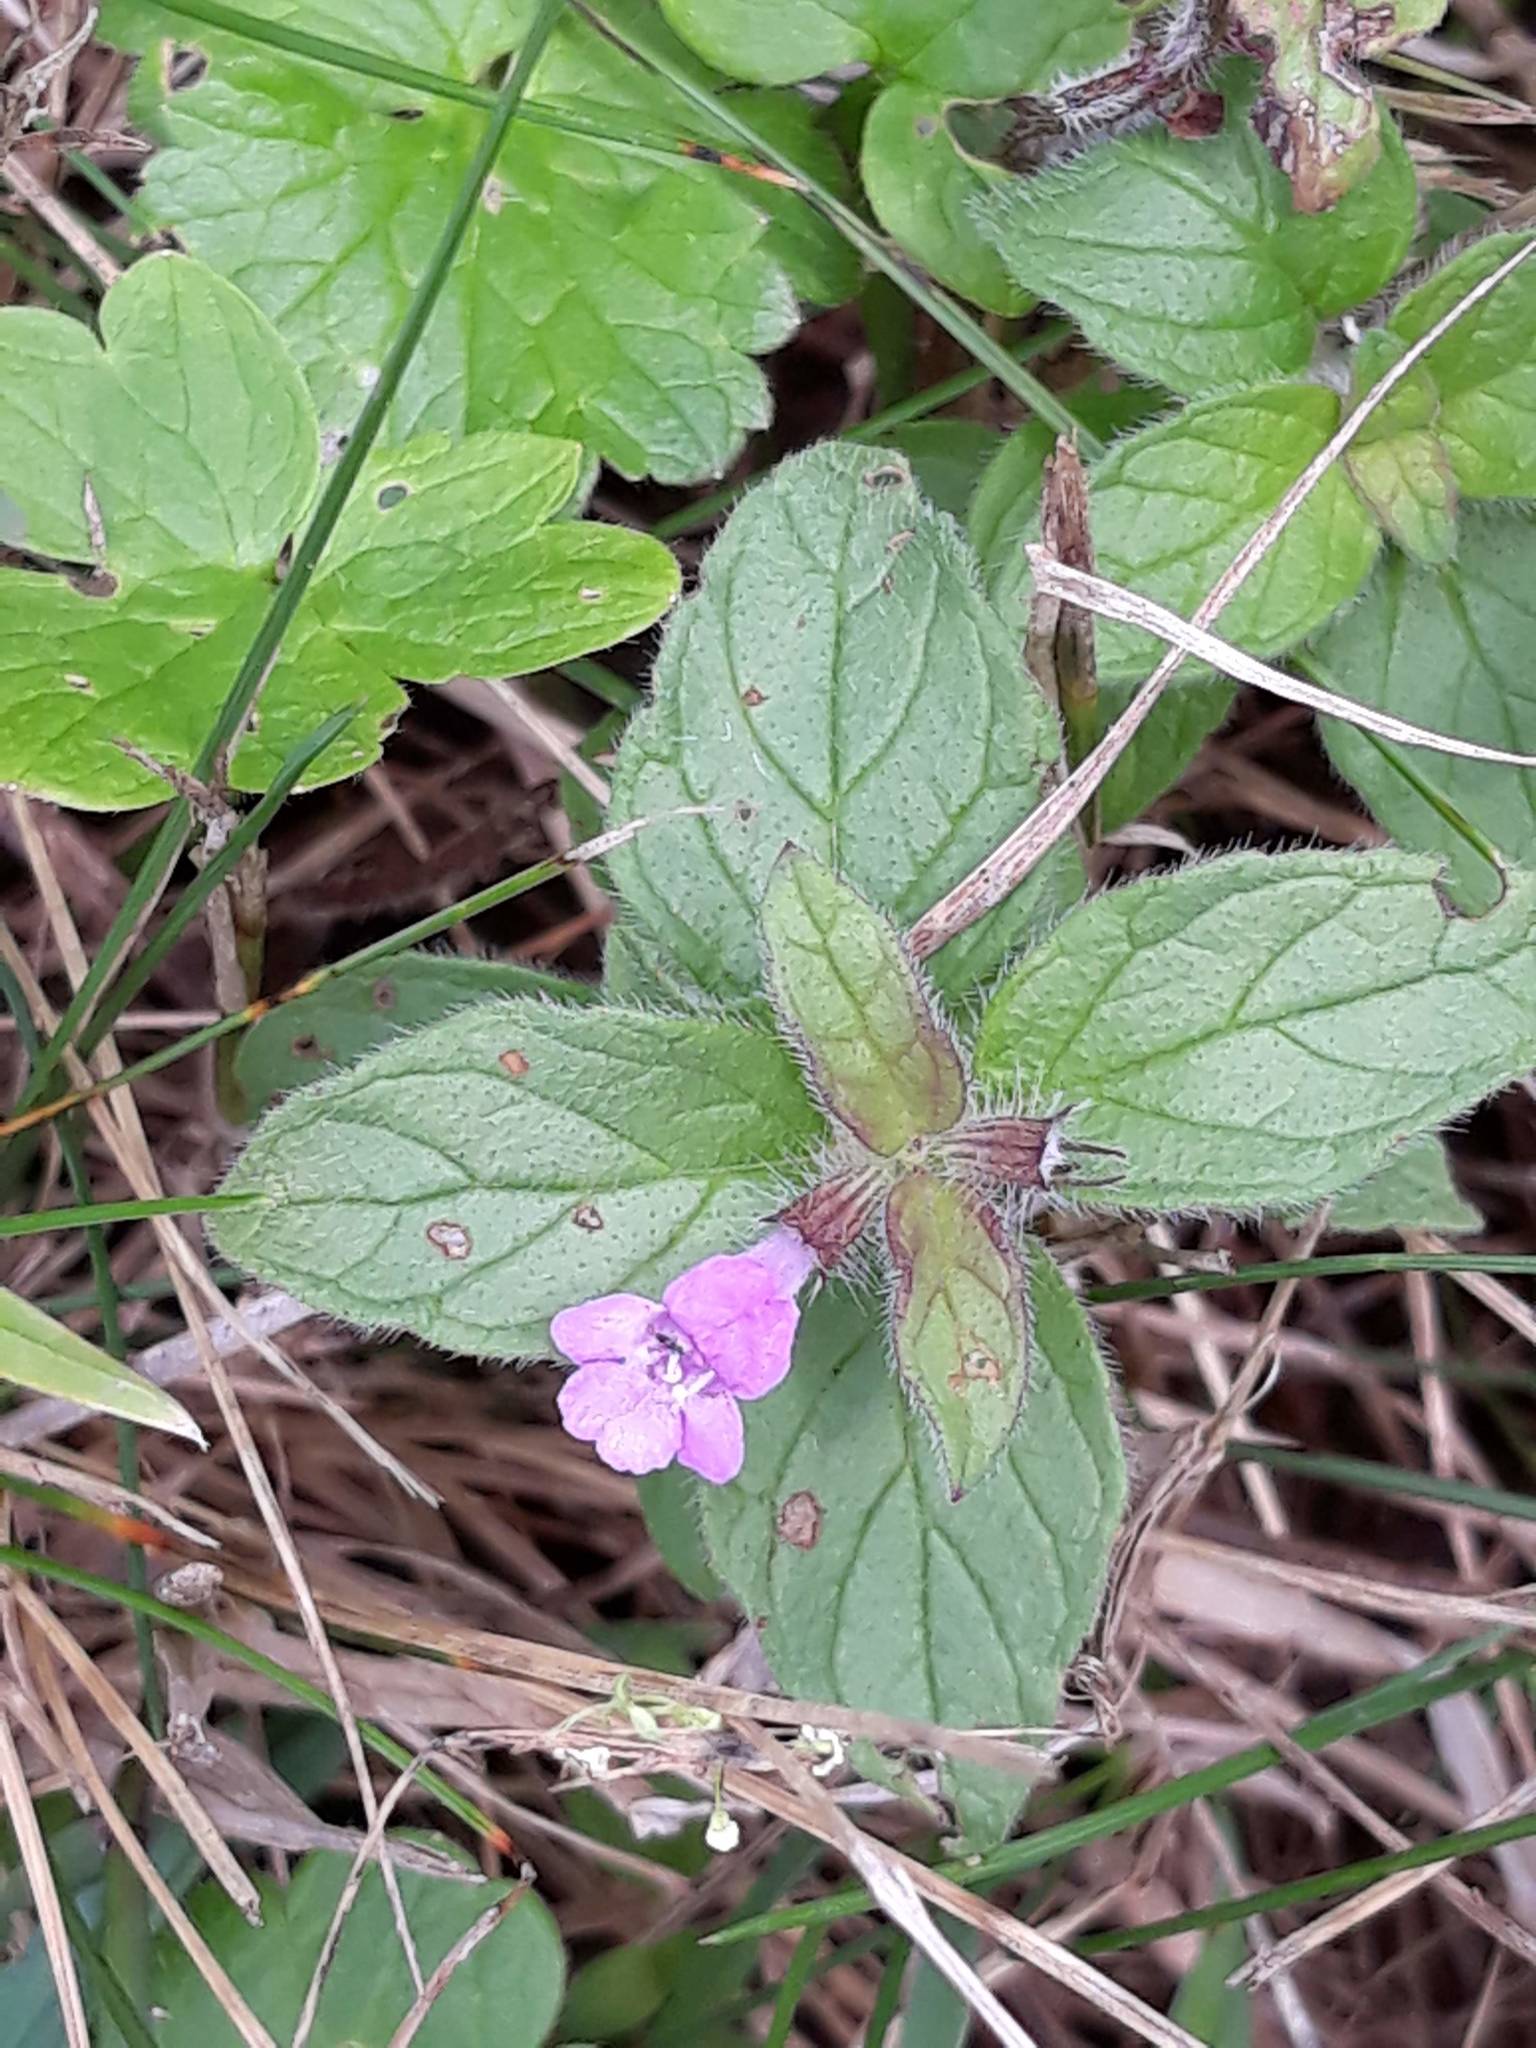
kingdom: Plantae
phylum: Tracheophyta
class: Magnoliopsida
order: Lamiales
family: Lamiaceae
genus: Clinopodium
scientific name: Clinopodium vulgare
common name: Wild basil
